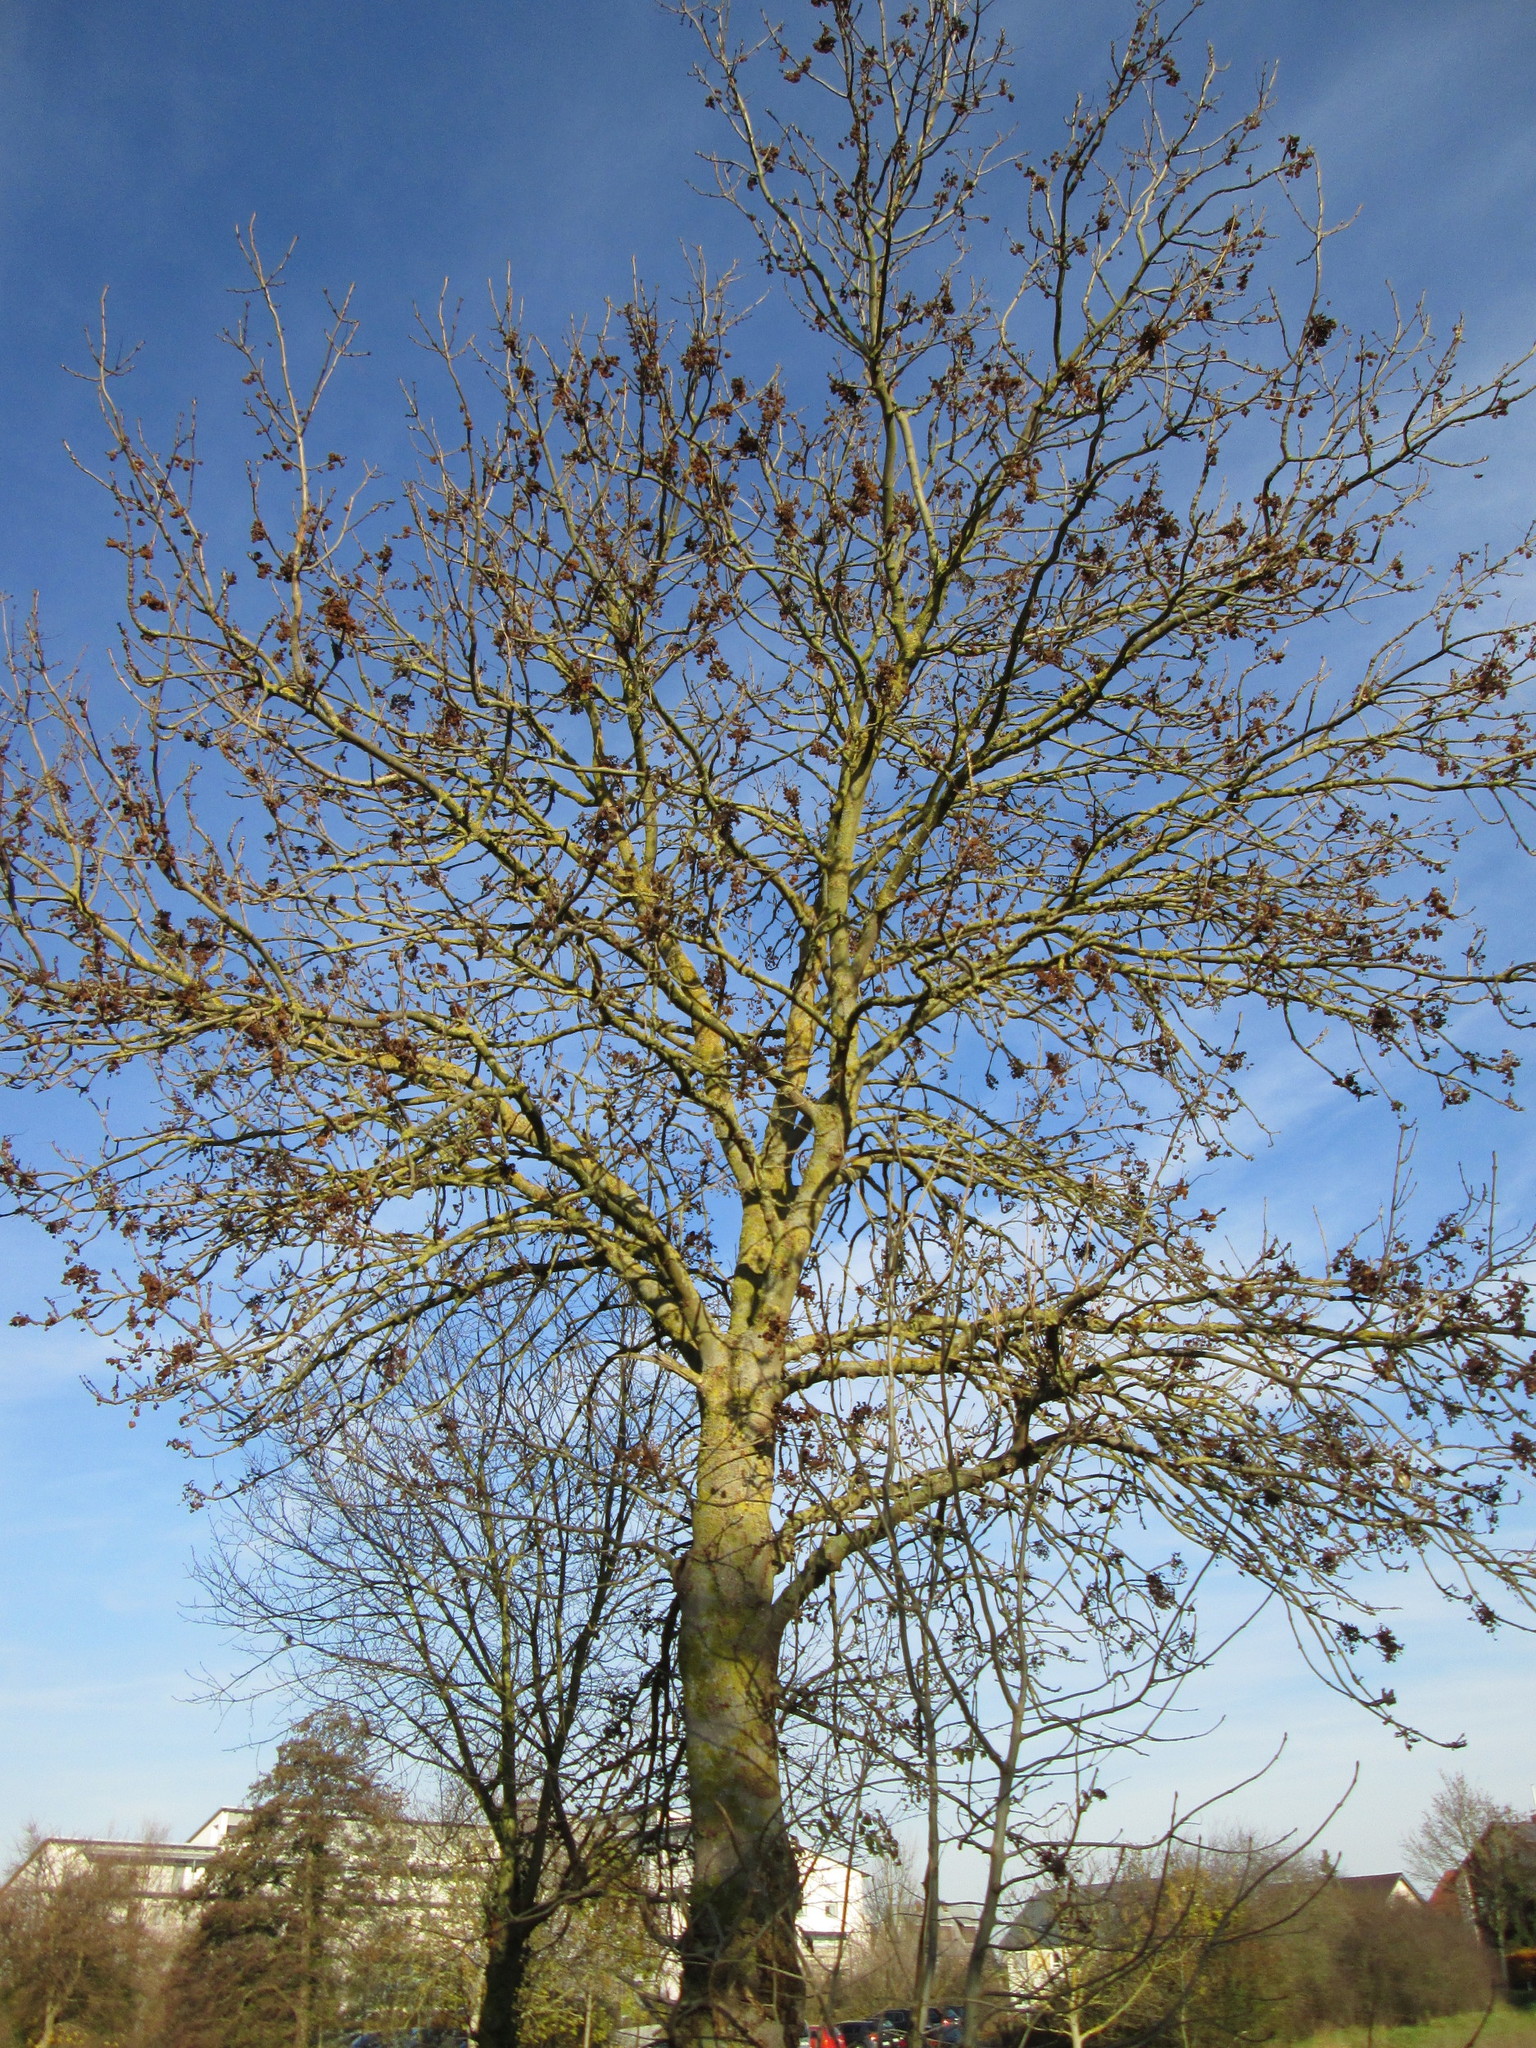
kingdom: Plantae
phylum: Tracheophyta
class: Magnoliopsida
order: Lamiales
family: Oleaceae
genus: Fraxinus
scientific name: Fraxinus excelsior
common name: European ash
